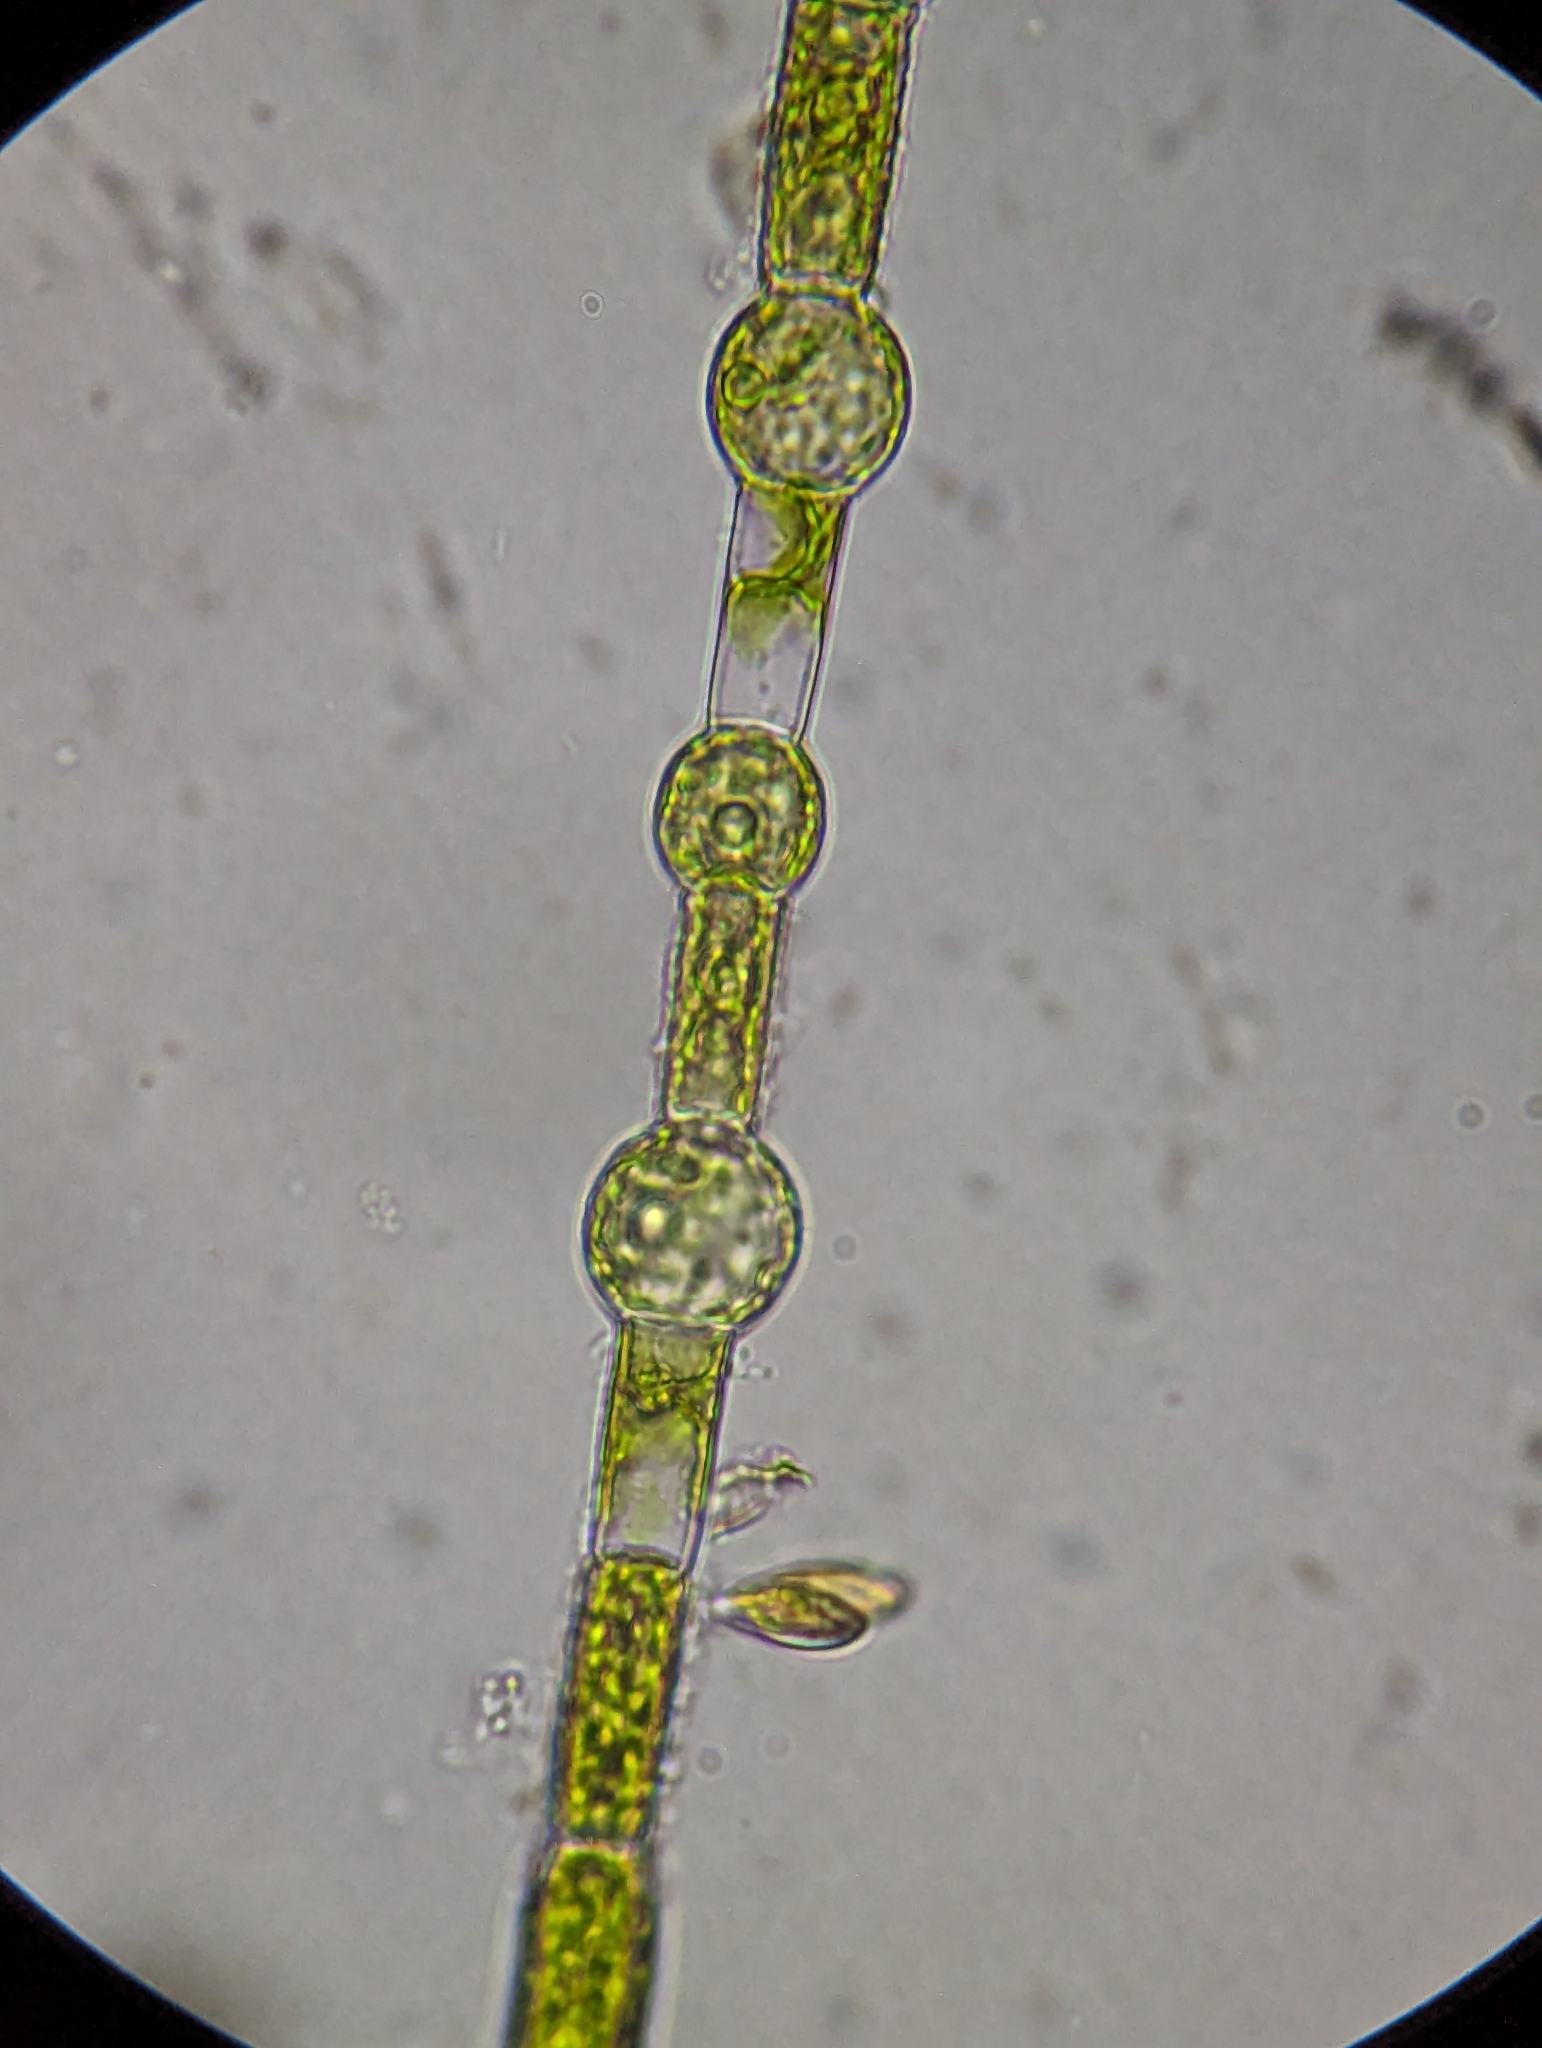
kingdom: Plantae
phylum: Chlorophyta
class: Chlorophyceae
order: Oedogoniales
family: Oedogoniaceae
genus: Oedogonium
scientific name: Oedogonium
